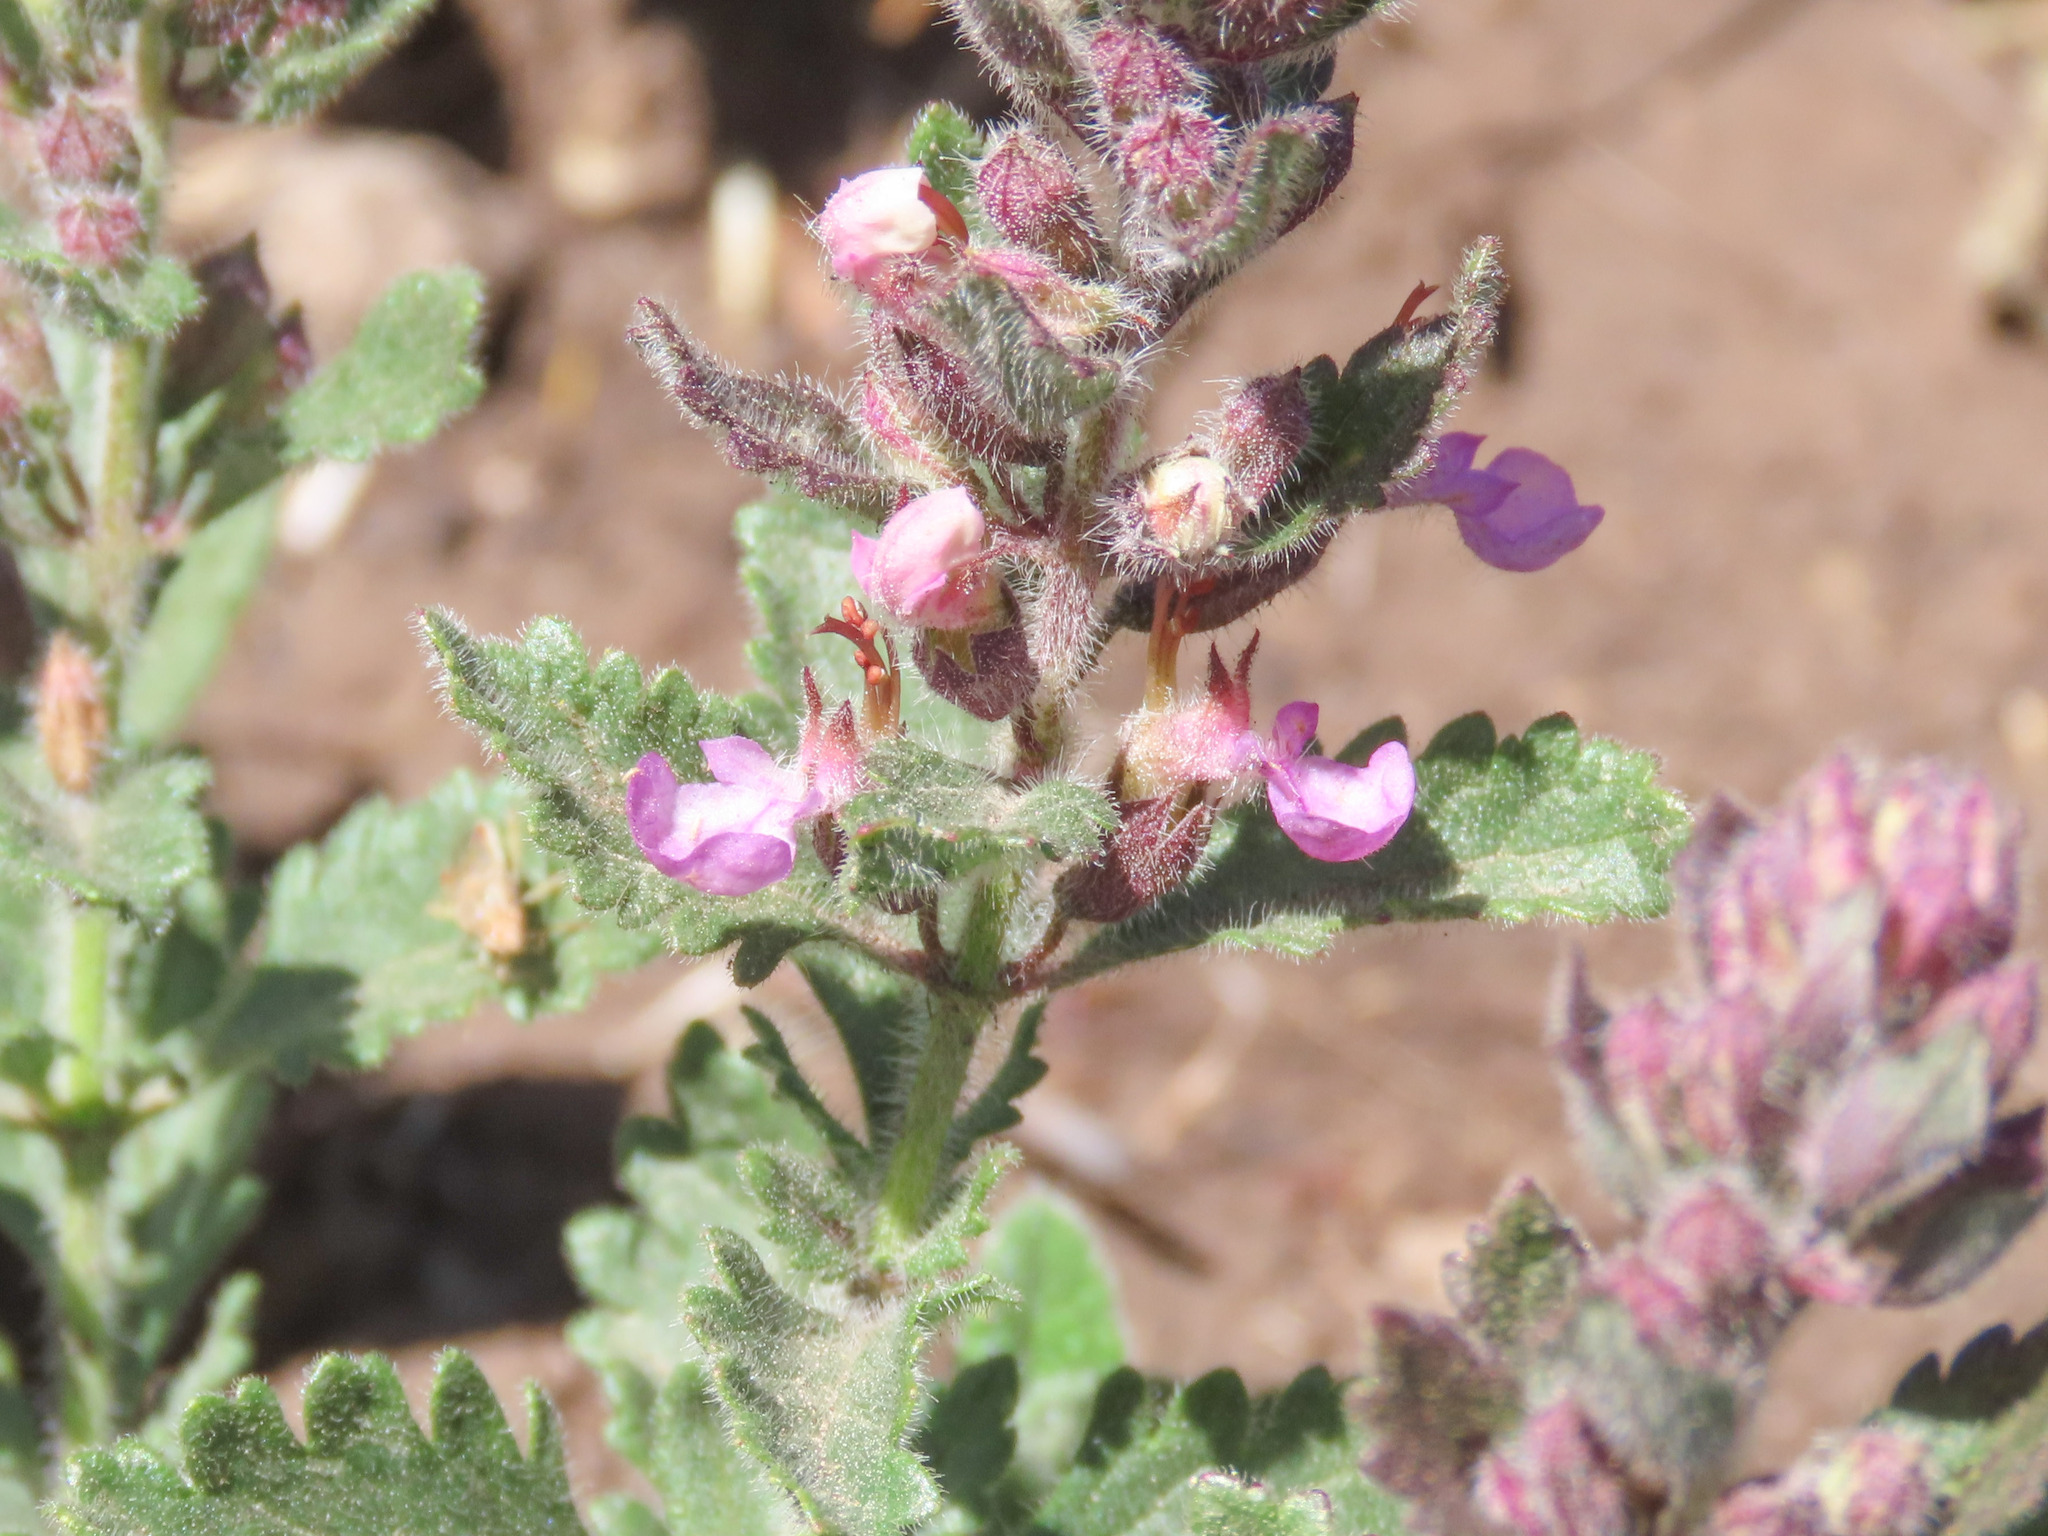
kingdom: Plantae
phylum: Tracheophyta
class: Magnoliopsida
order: Lamiales
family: Lamiaceae
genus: Teucrium
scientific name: Teucrium chamaedrys
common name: Wall germander
